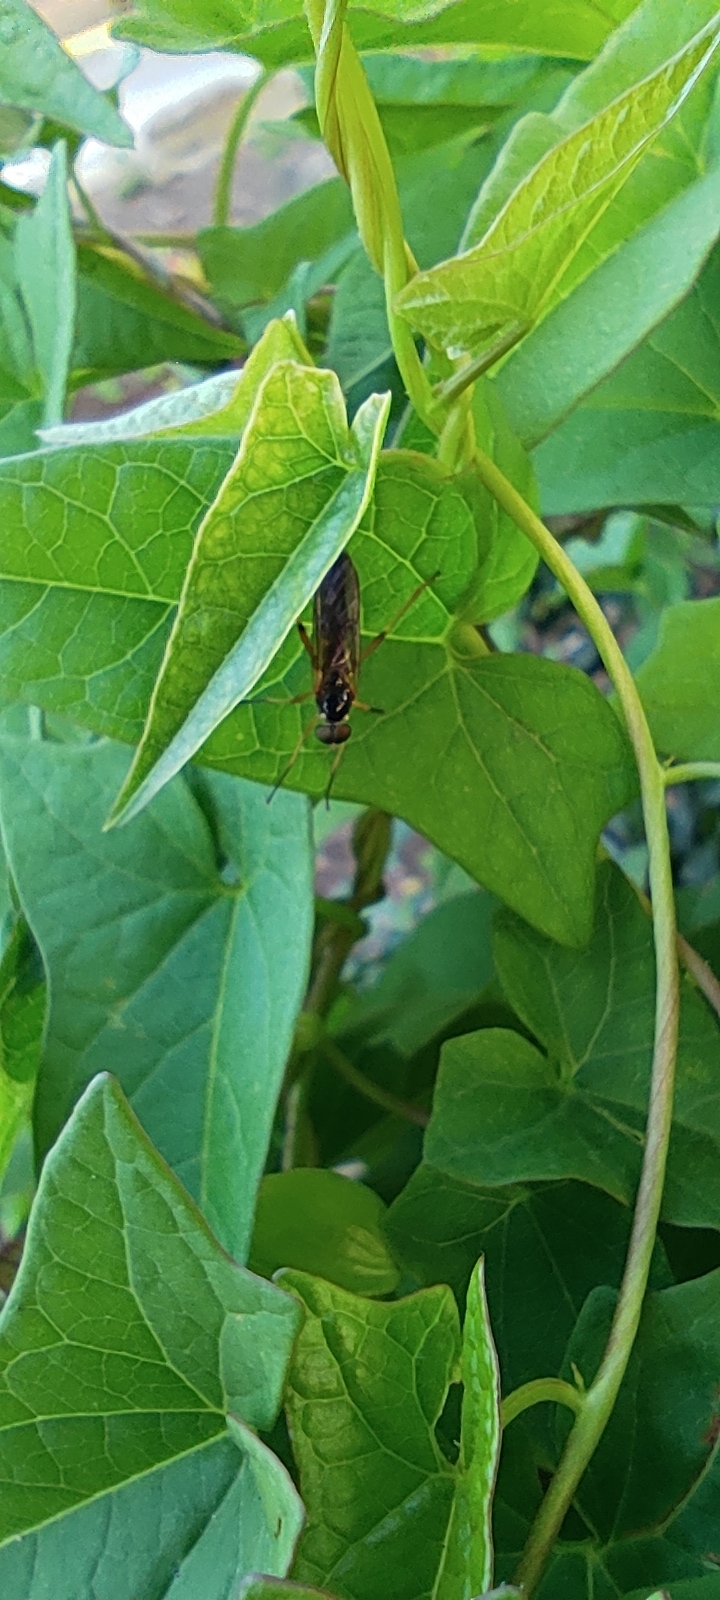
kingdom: Animalia
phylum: Arthropoda
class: Insecta
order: Diptera
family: Xylophagidae
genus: Dialysis
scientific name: Dialysis elongata
